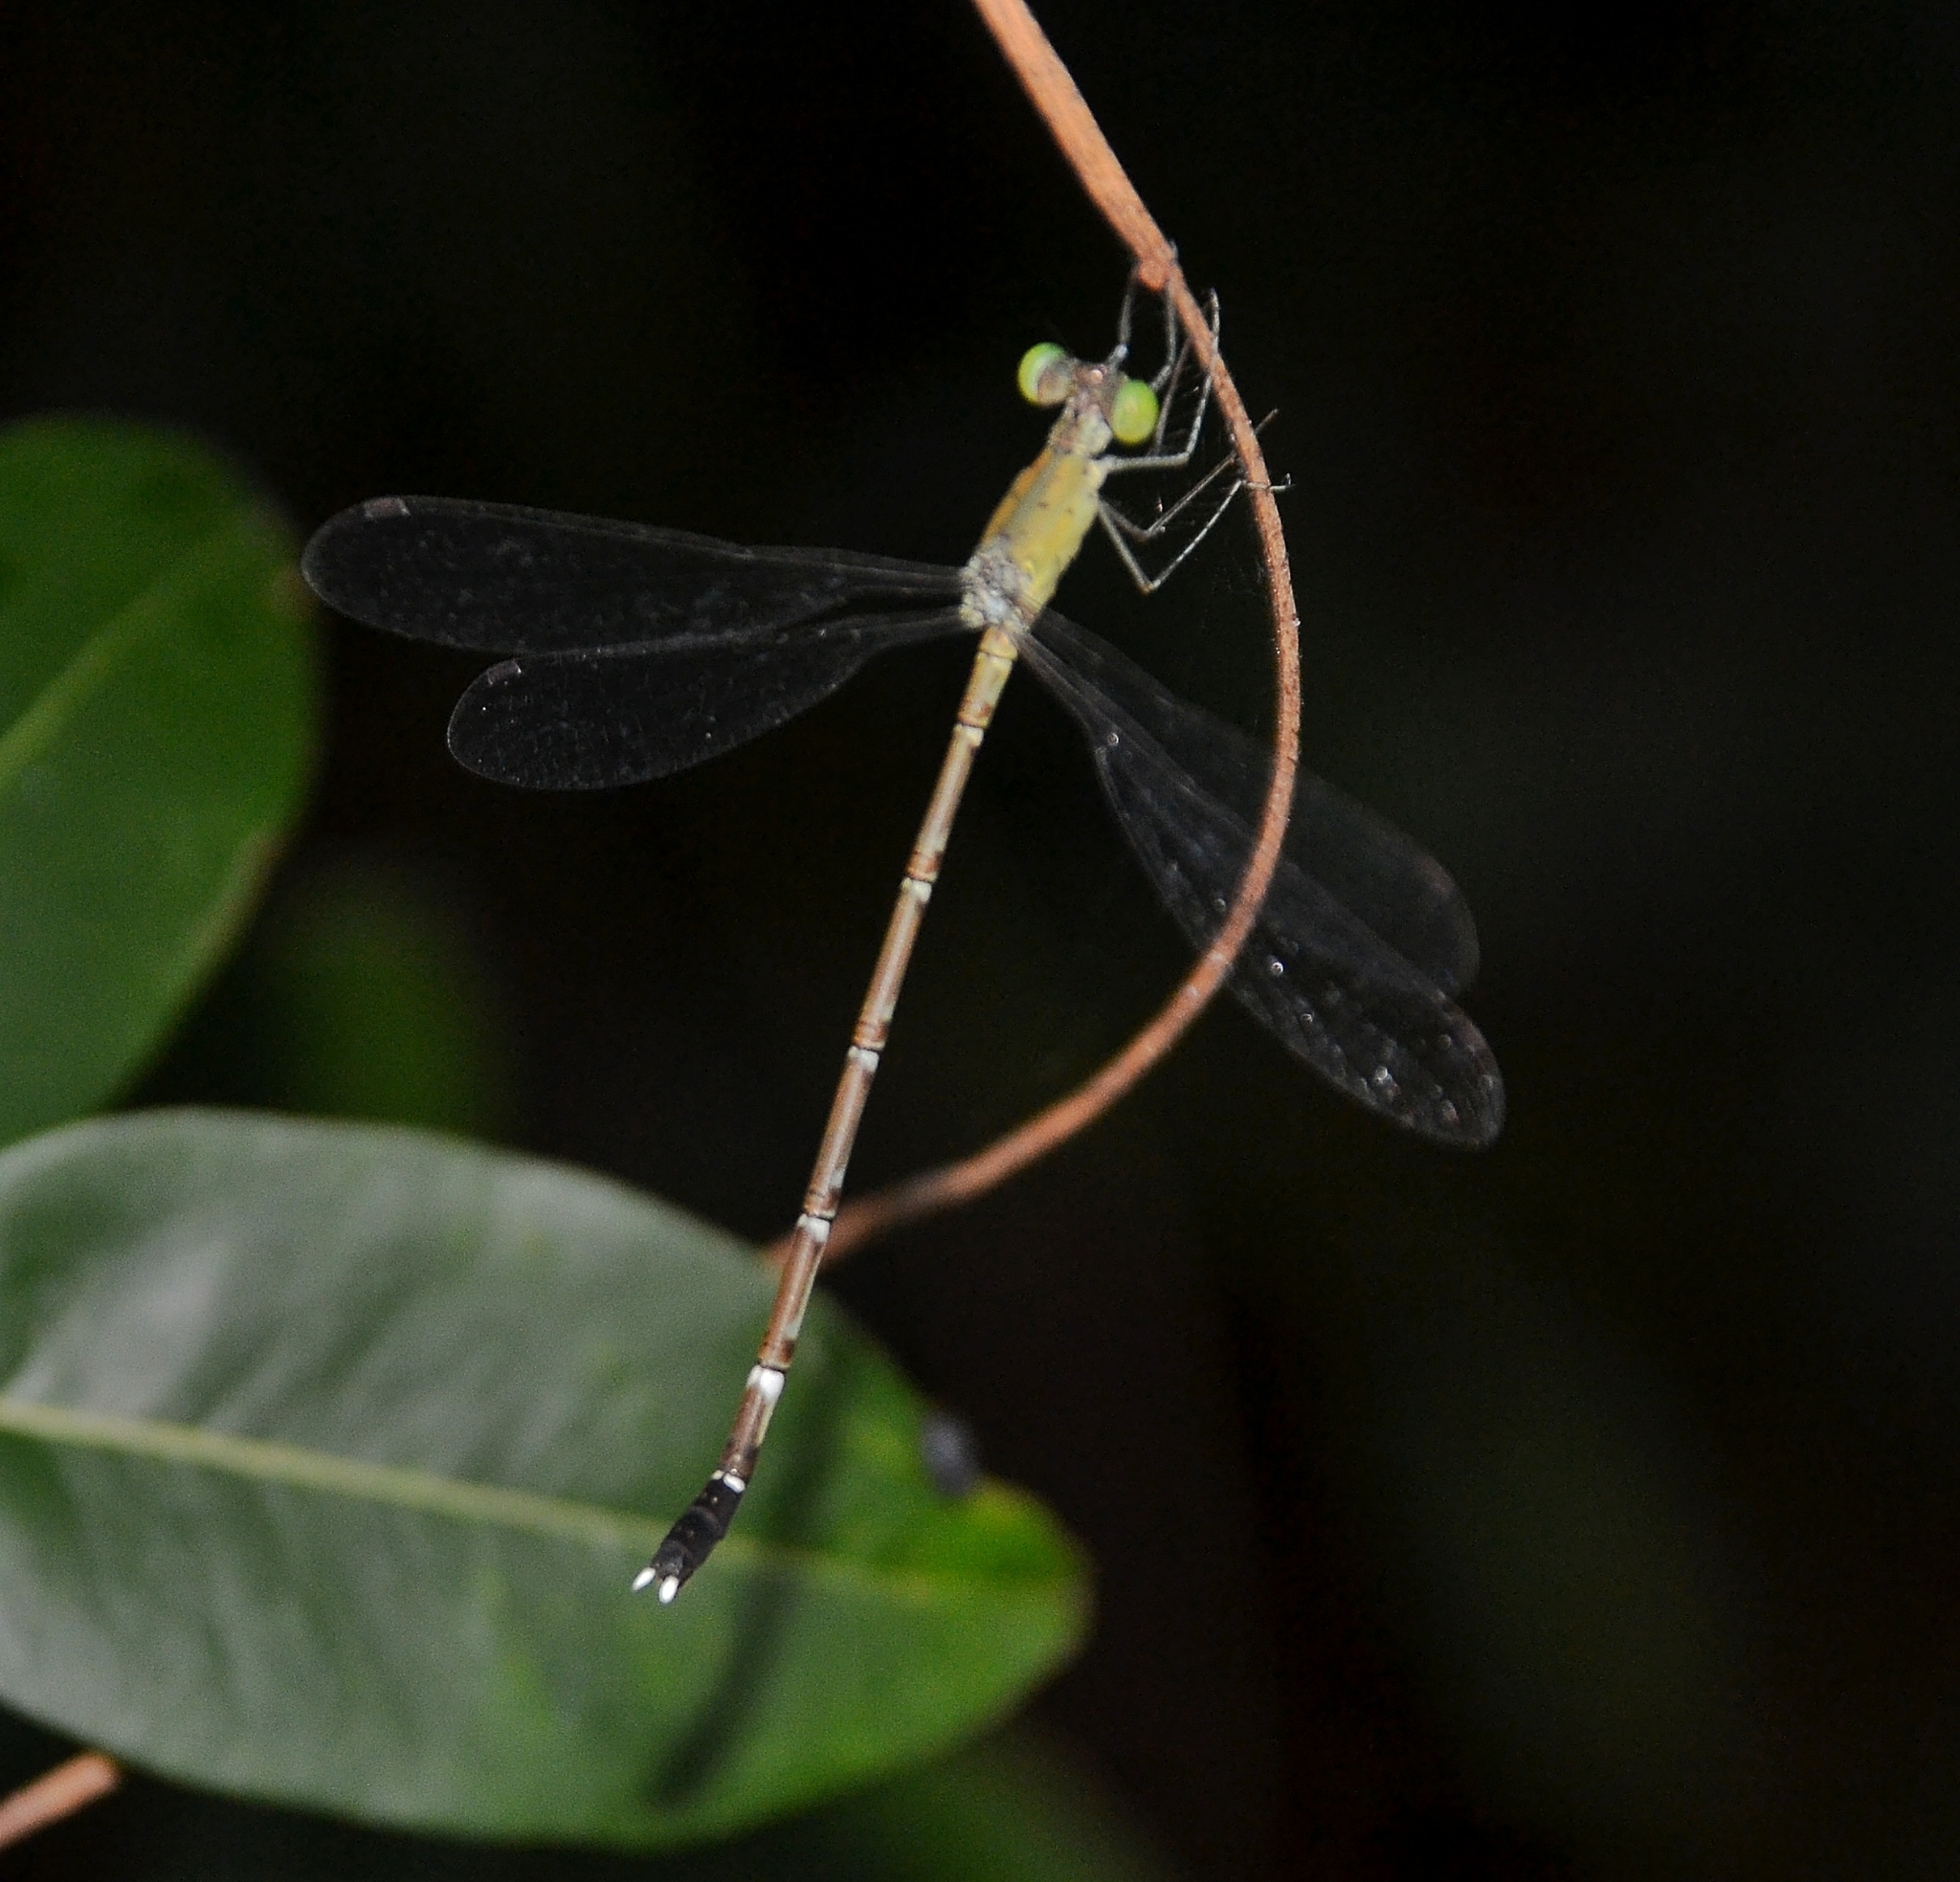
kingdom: Animalia
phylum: Arthropoda
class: Insecta
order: Odonata
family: Lestidae
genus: Platylestes
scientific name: Platylestes kirani
